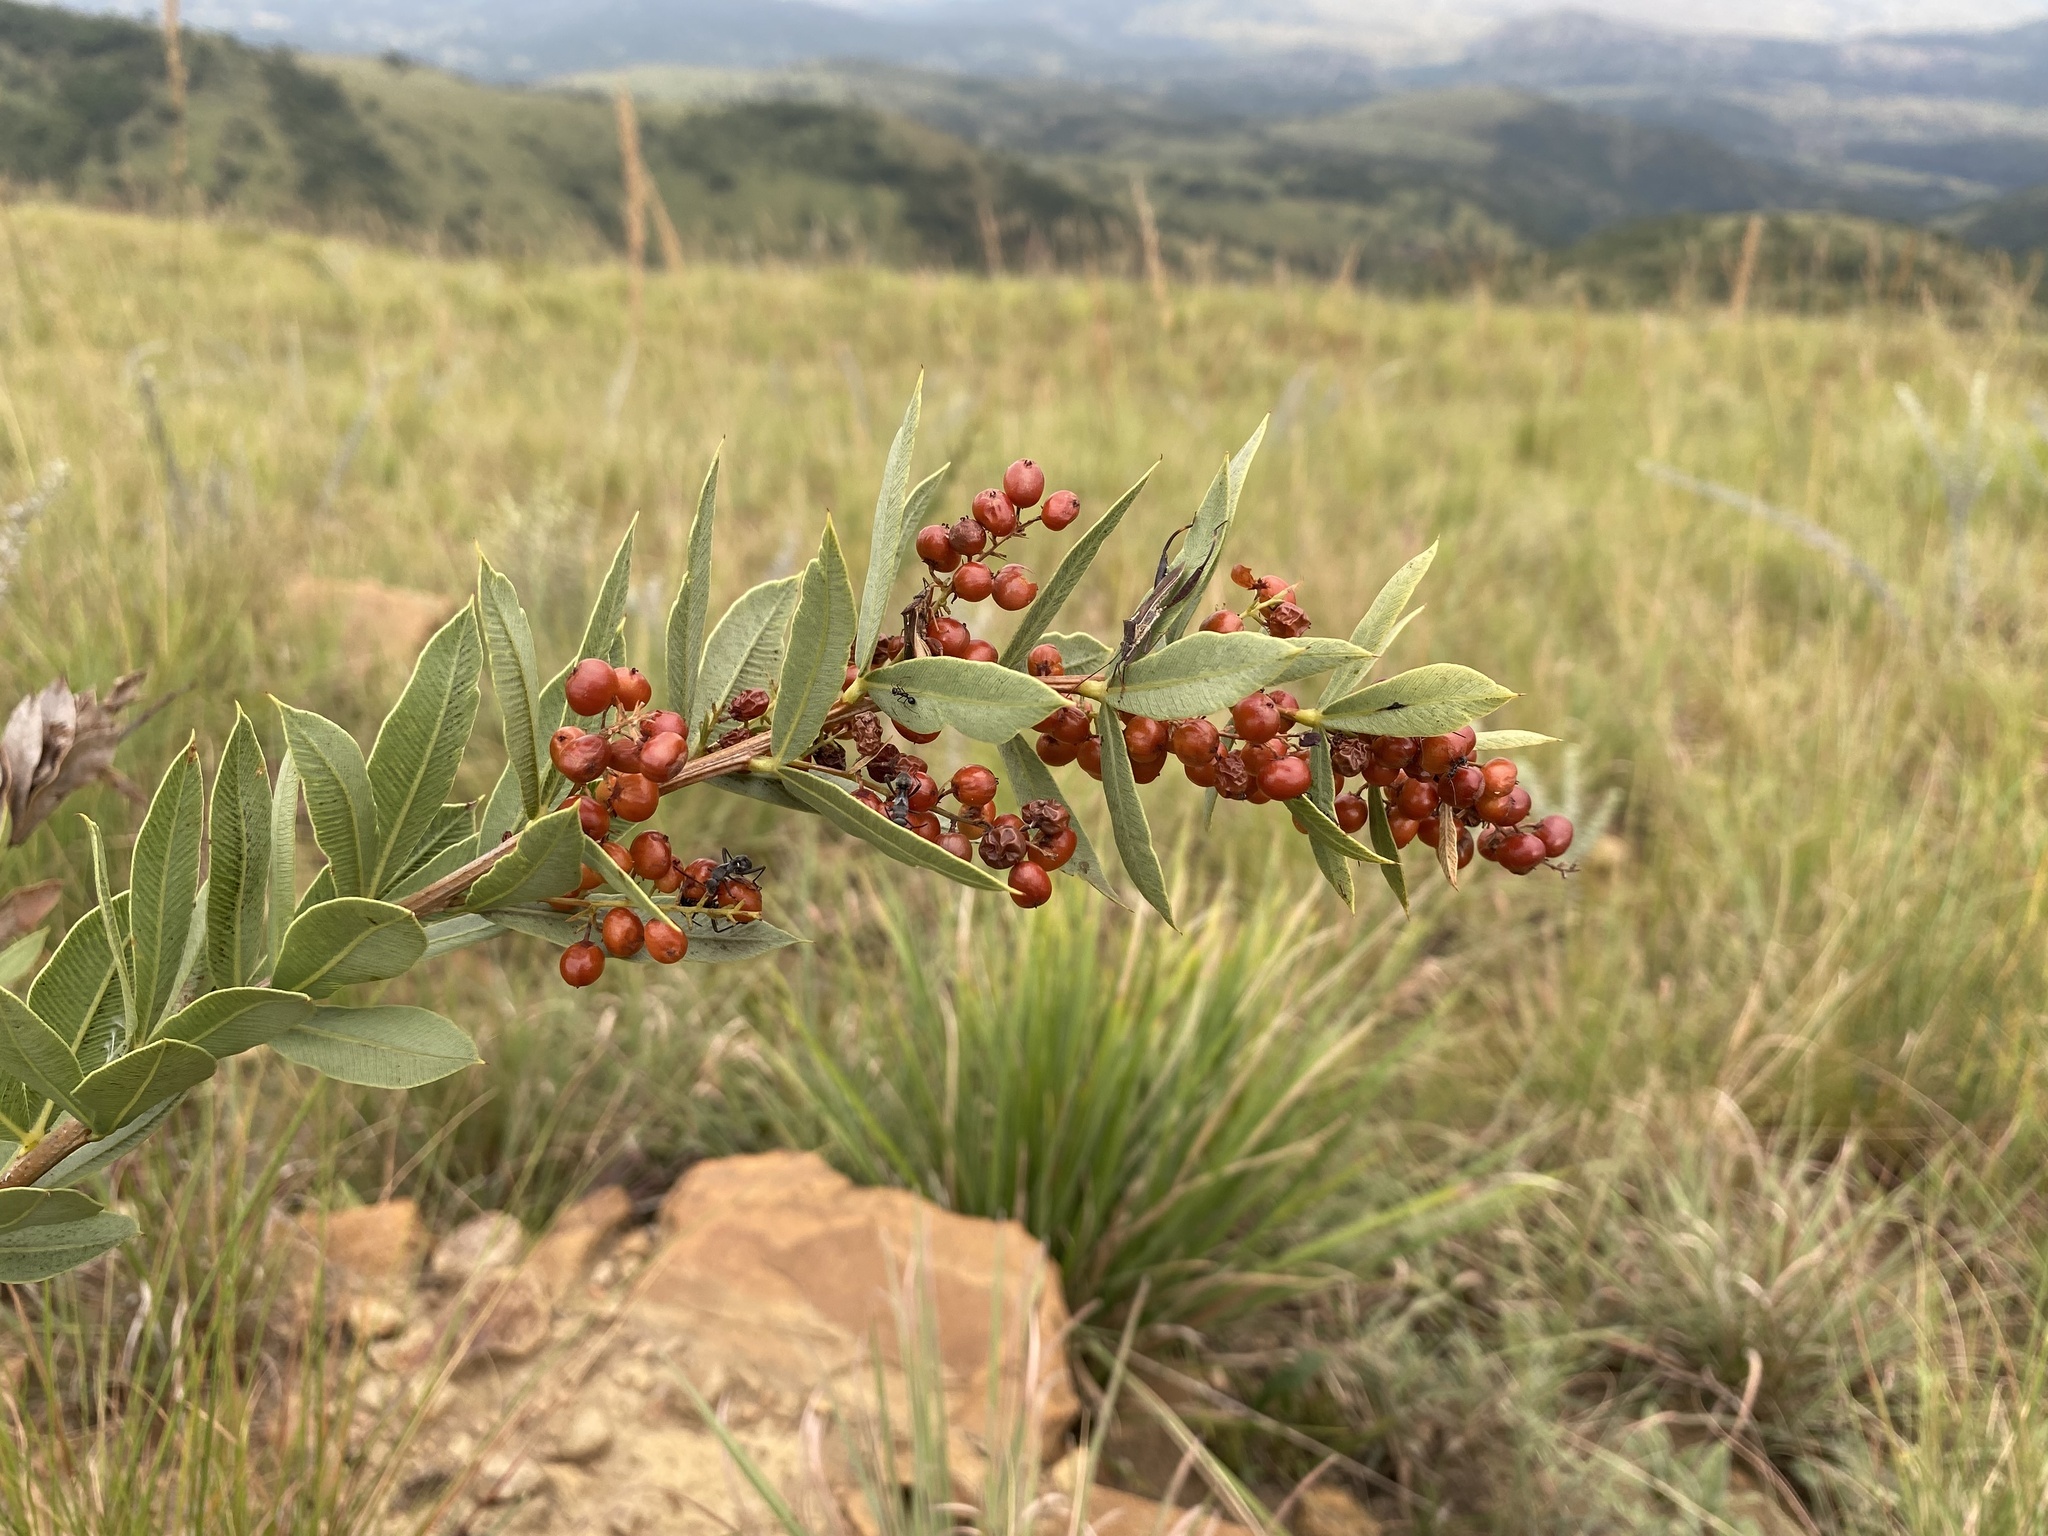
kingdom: Plantae
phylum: Tracheophyta
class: Magnoliopsida
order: Sapindales
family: Anacardiaceae
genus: Searsia
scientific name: Searsia pondoensis
